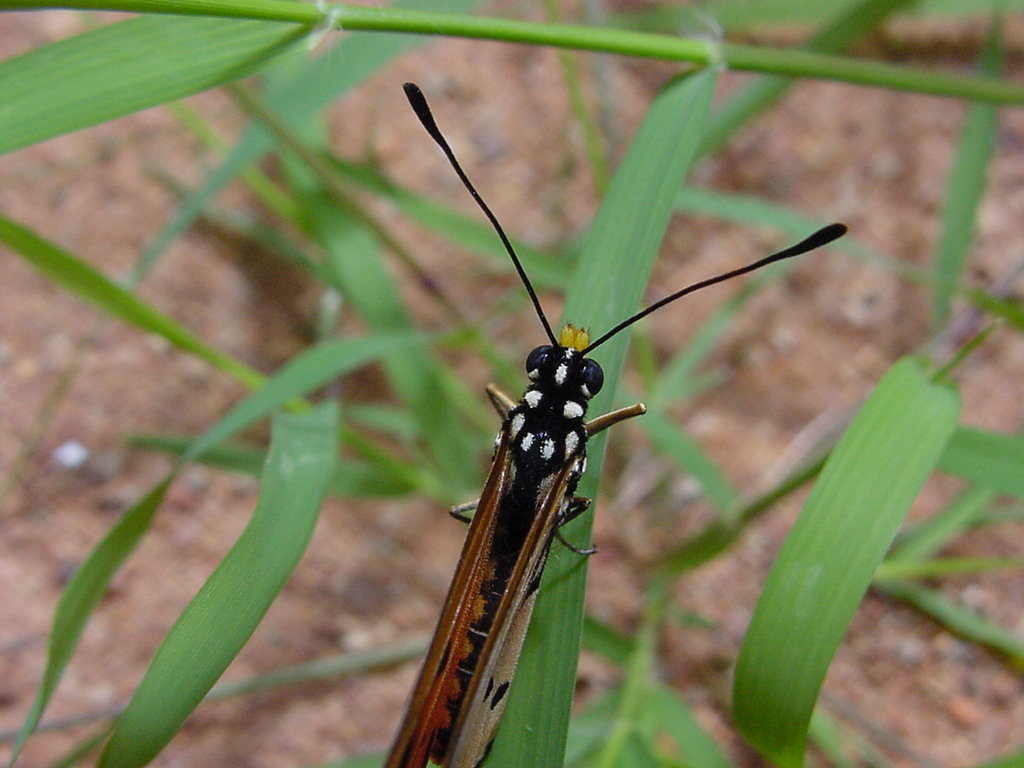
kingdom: Animalia
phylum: Arthropoda
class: Insecta
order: Lepidoptera
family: Nymphalidae
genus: Acraea
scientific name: Acraea terpsicore
